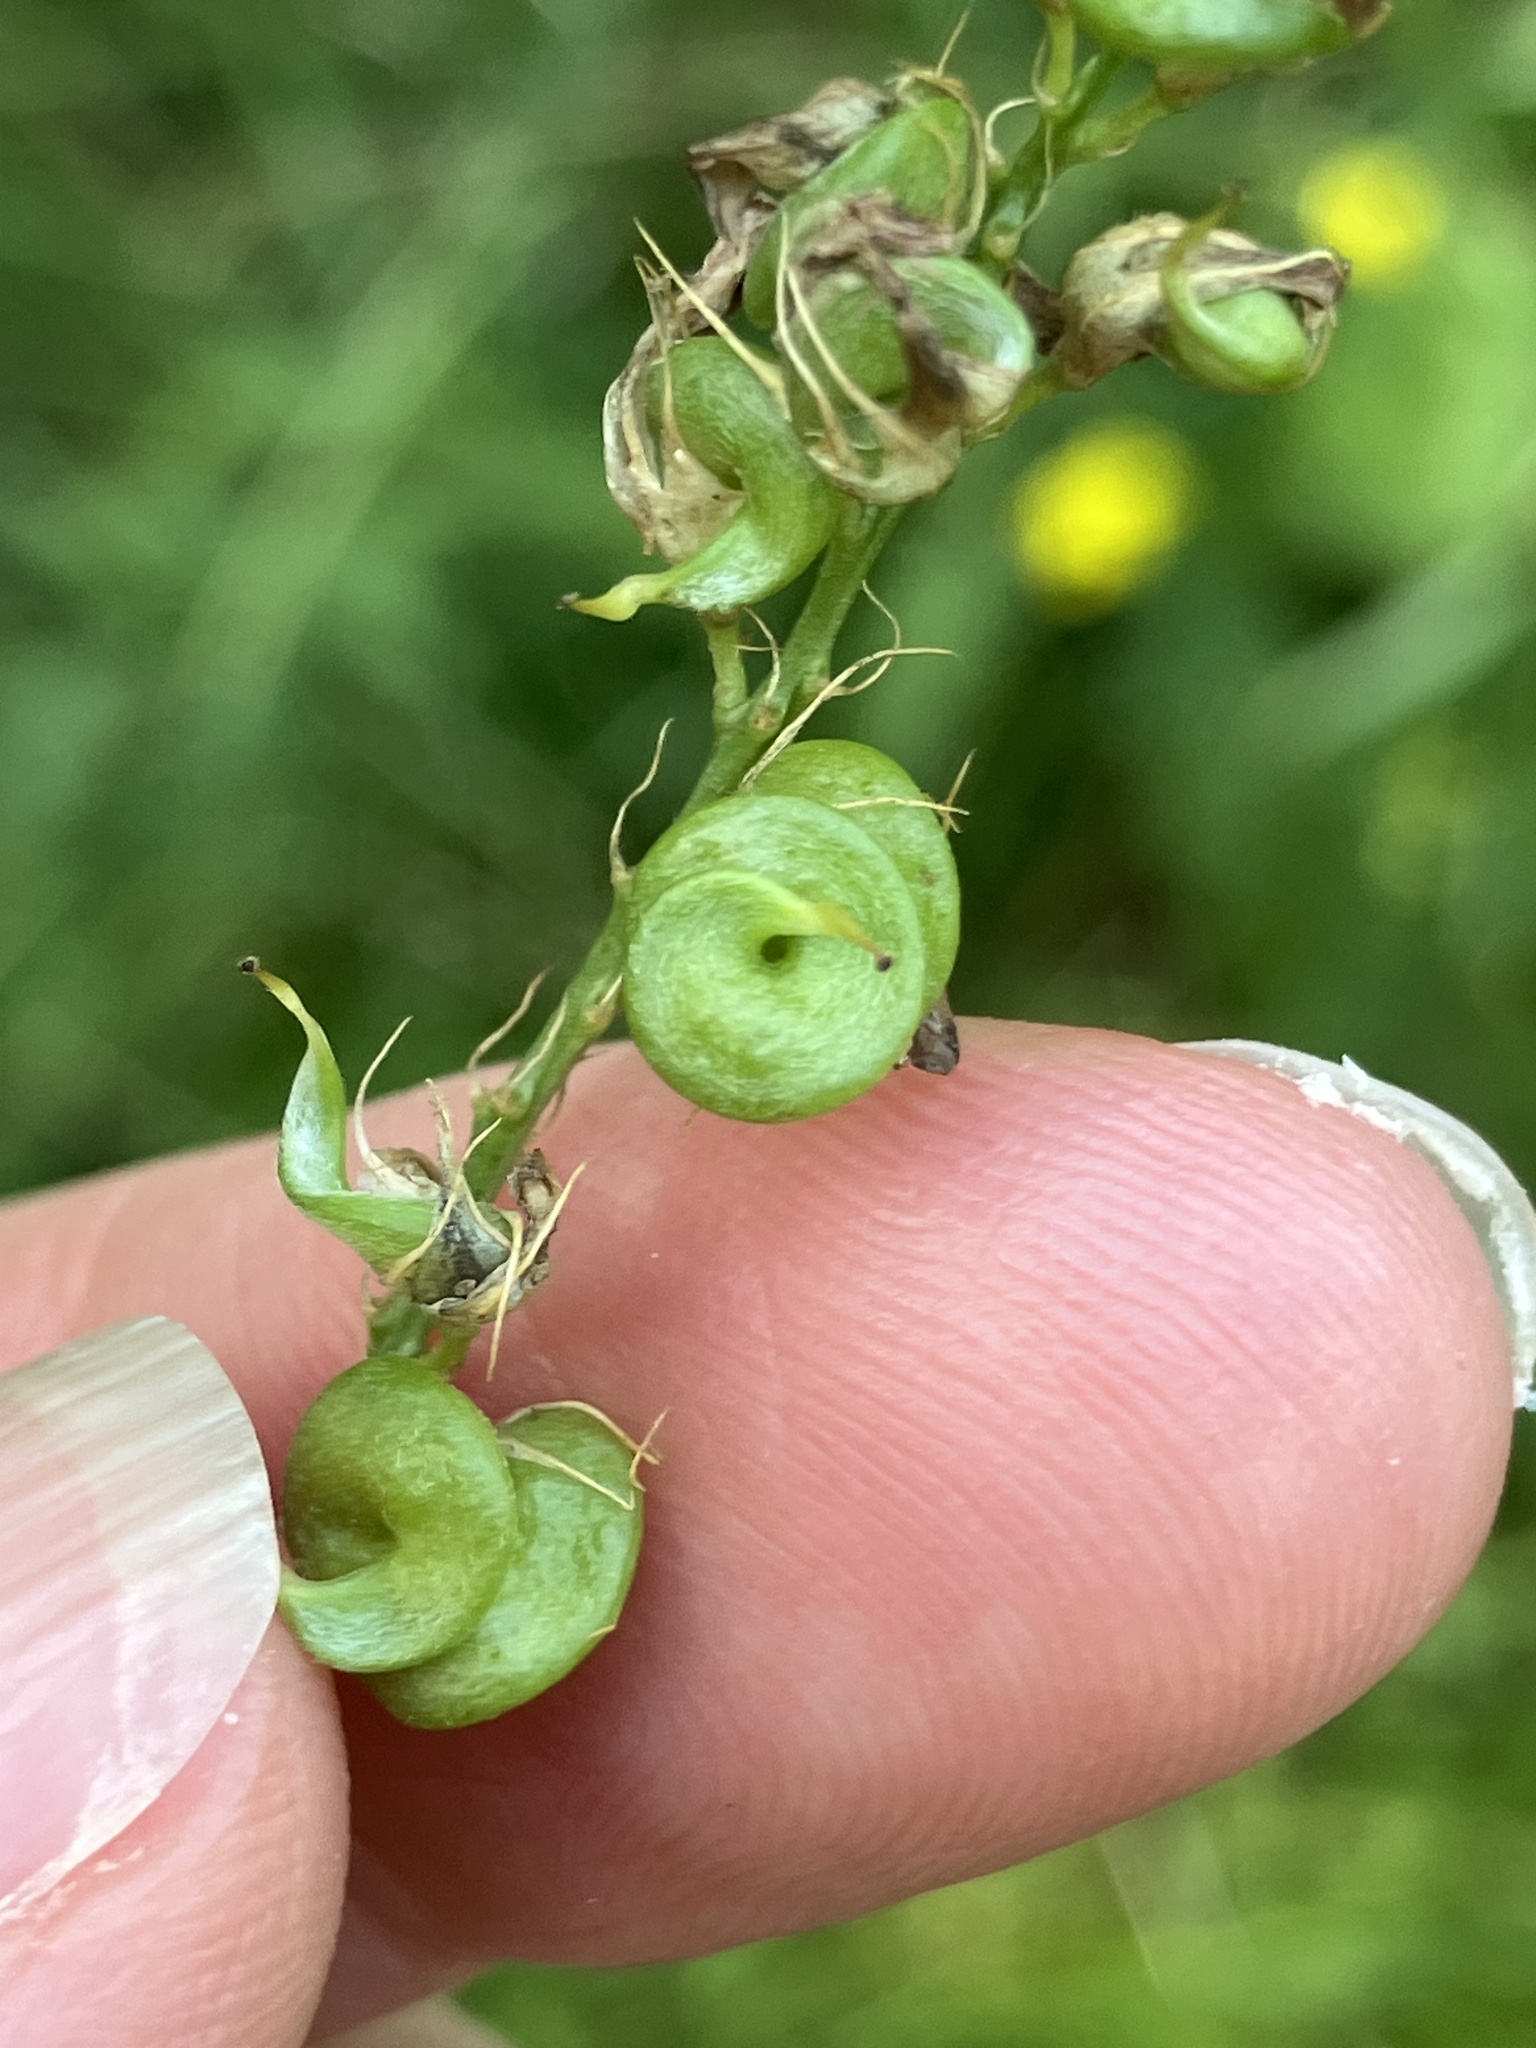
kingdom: Plantae
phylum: Tracheophyta
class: Magnoliopsida
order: Fabales
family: Fabaceae
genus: Medicago
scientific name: Medicago varia
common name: Sand lucerne
